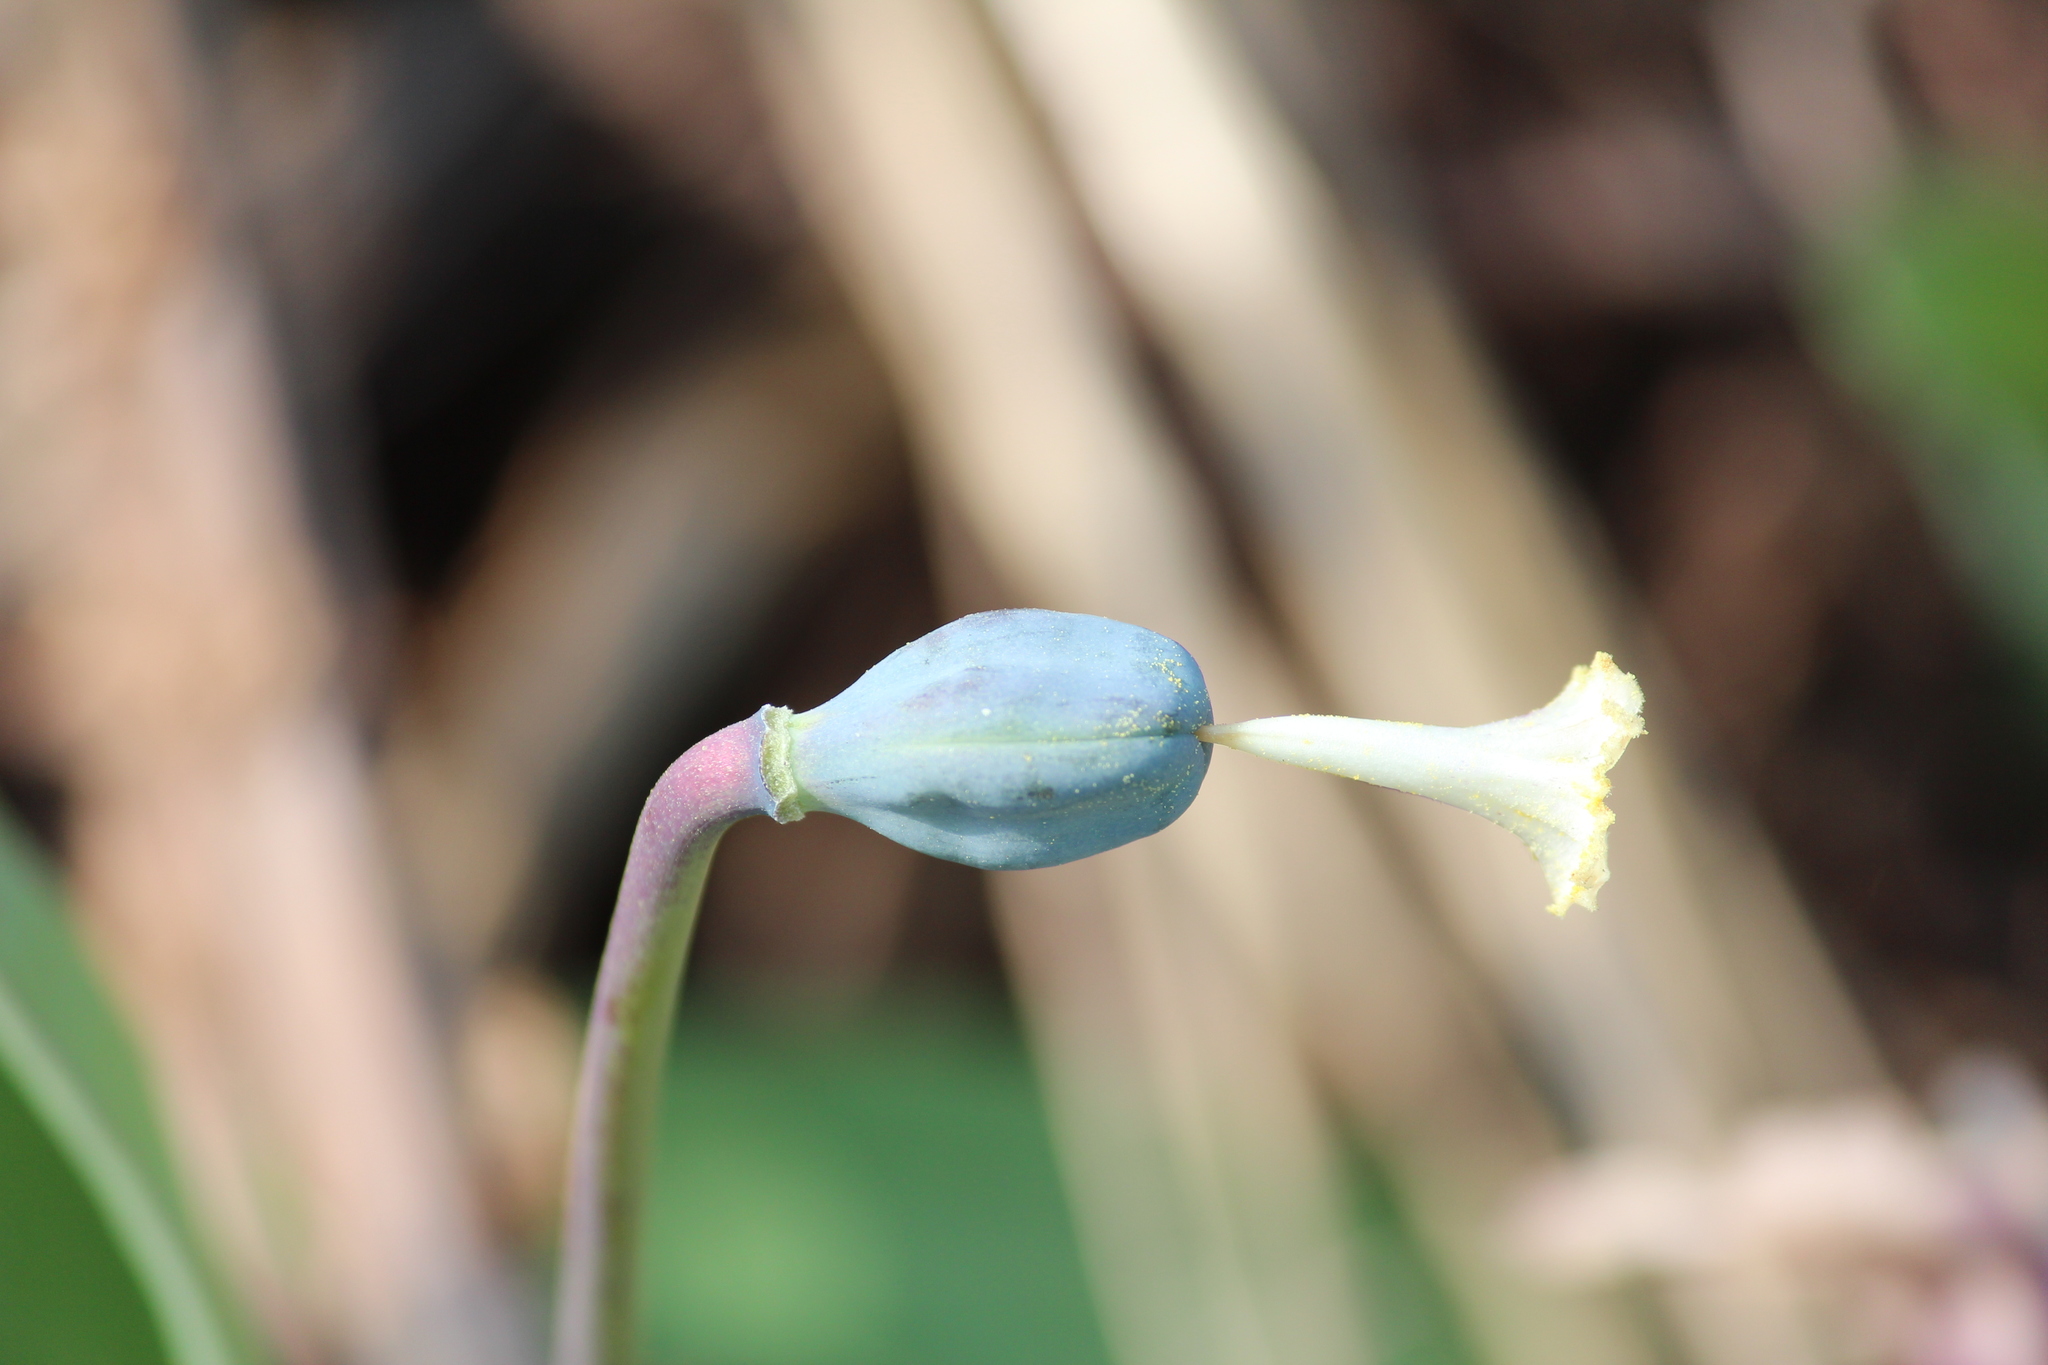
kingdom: Plantae
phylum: Tracheophyta
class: Liliopsida
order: Liliales
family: Liliaceae
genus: Erythronium
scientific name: Erythronium sibiricum
